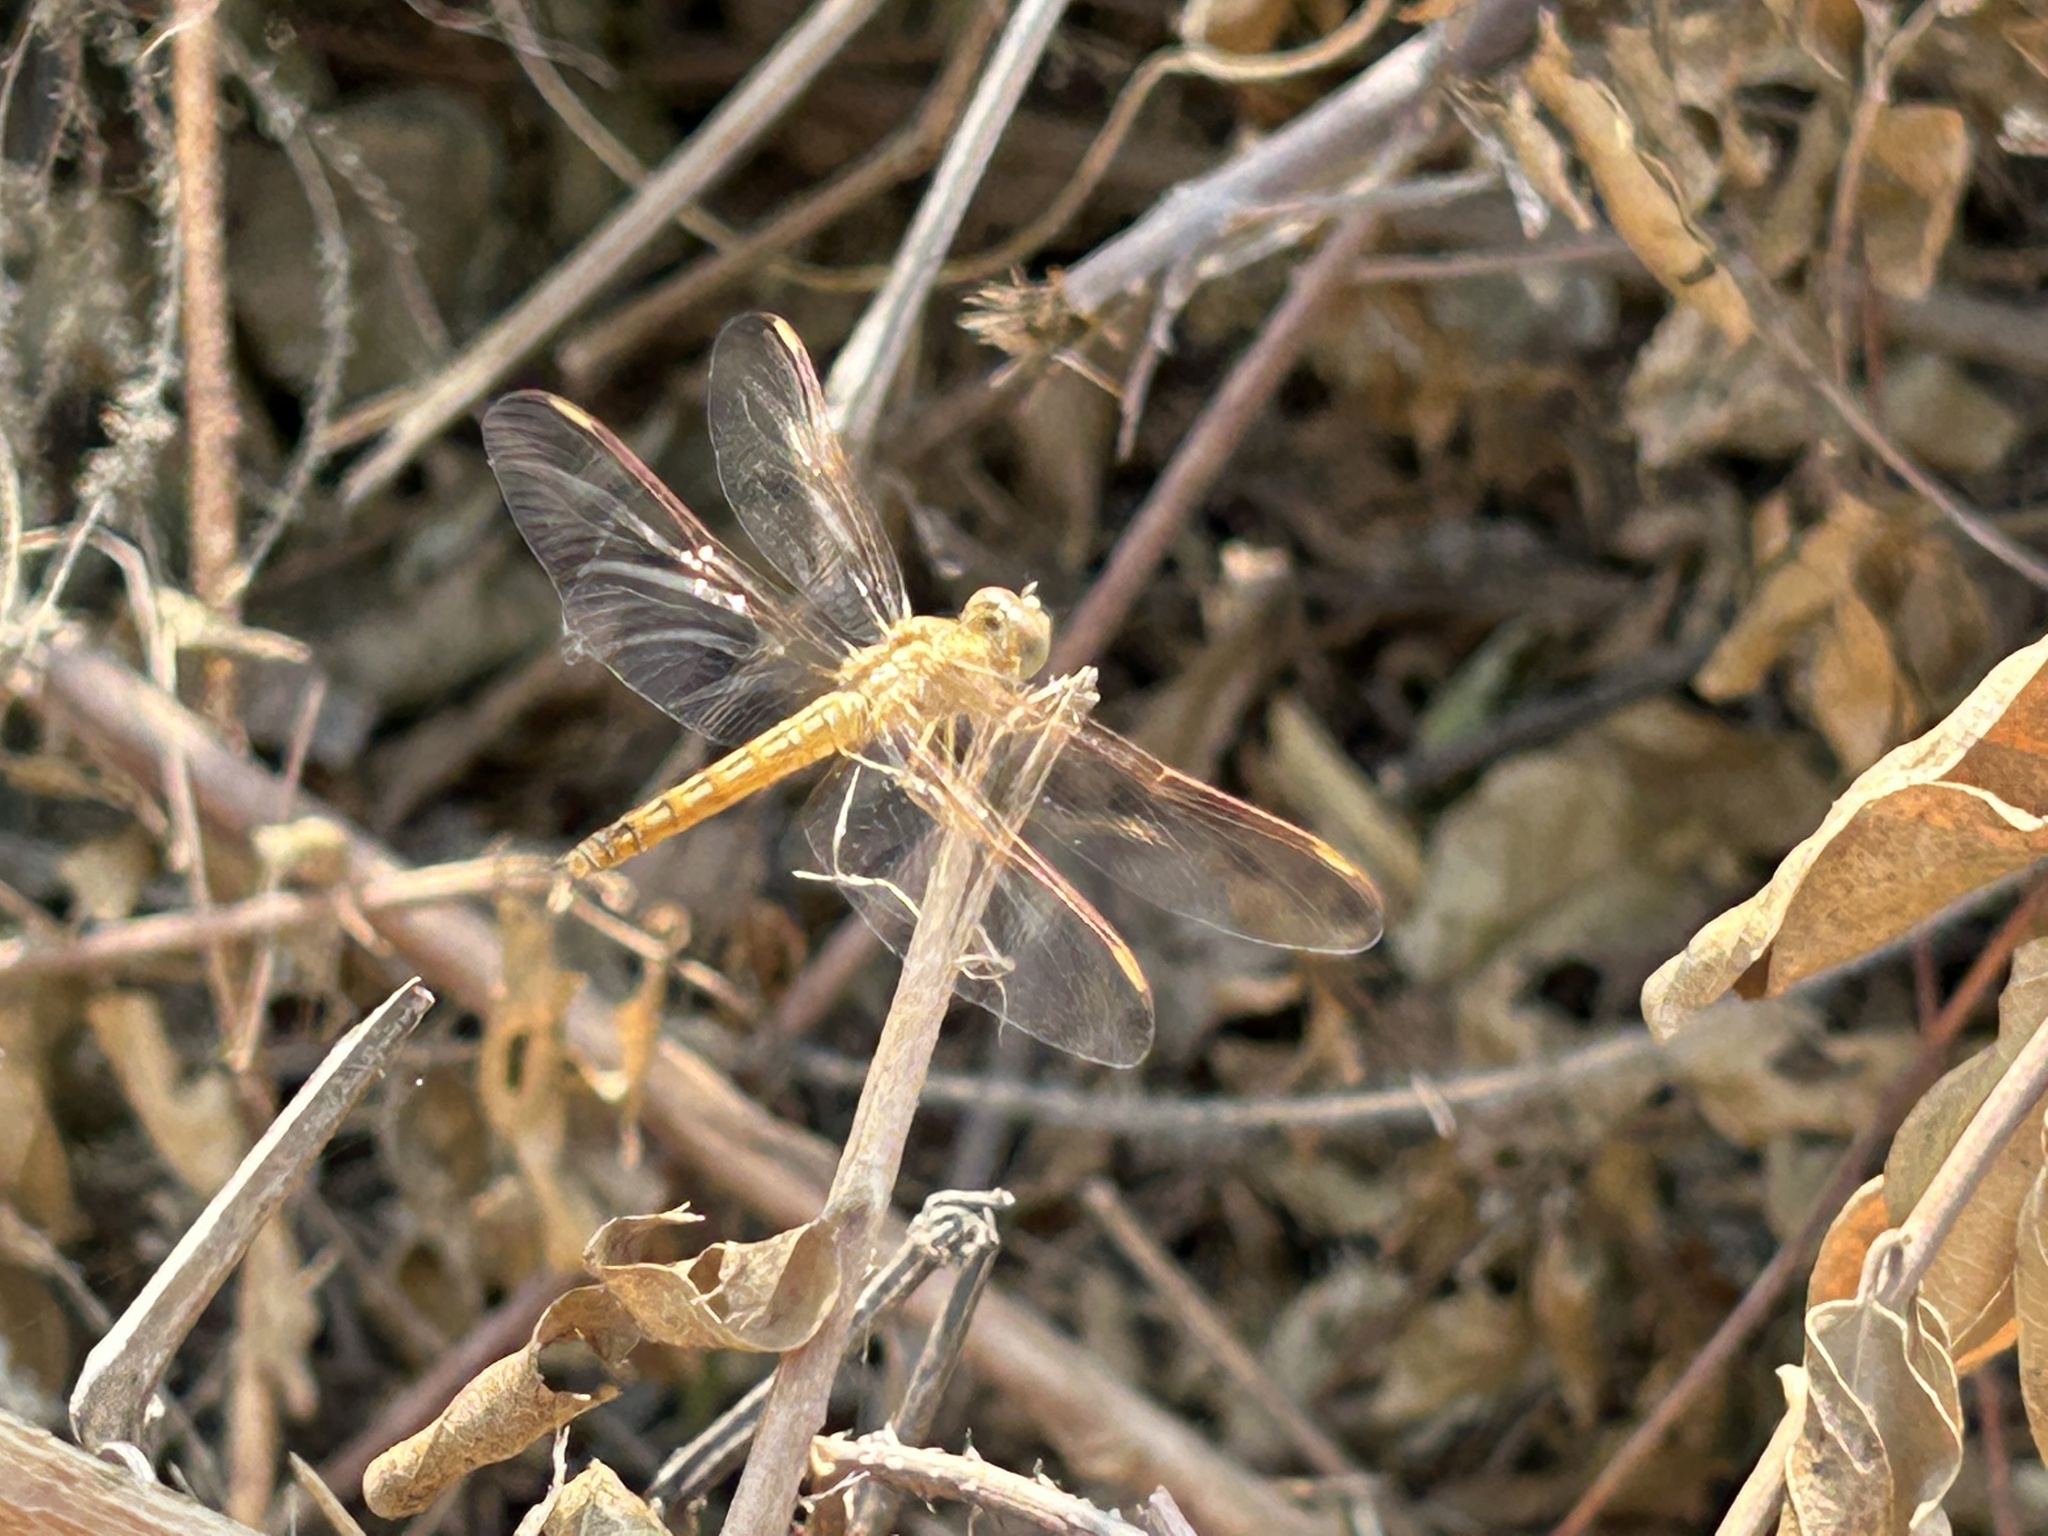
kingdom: Animalia
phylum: Arthropoda
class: Insecta
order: Odonata
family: Libellulidae
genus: Brachythemis
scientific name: Brachythemis contaminata
